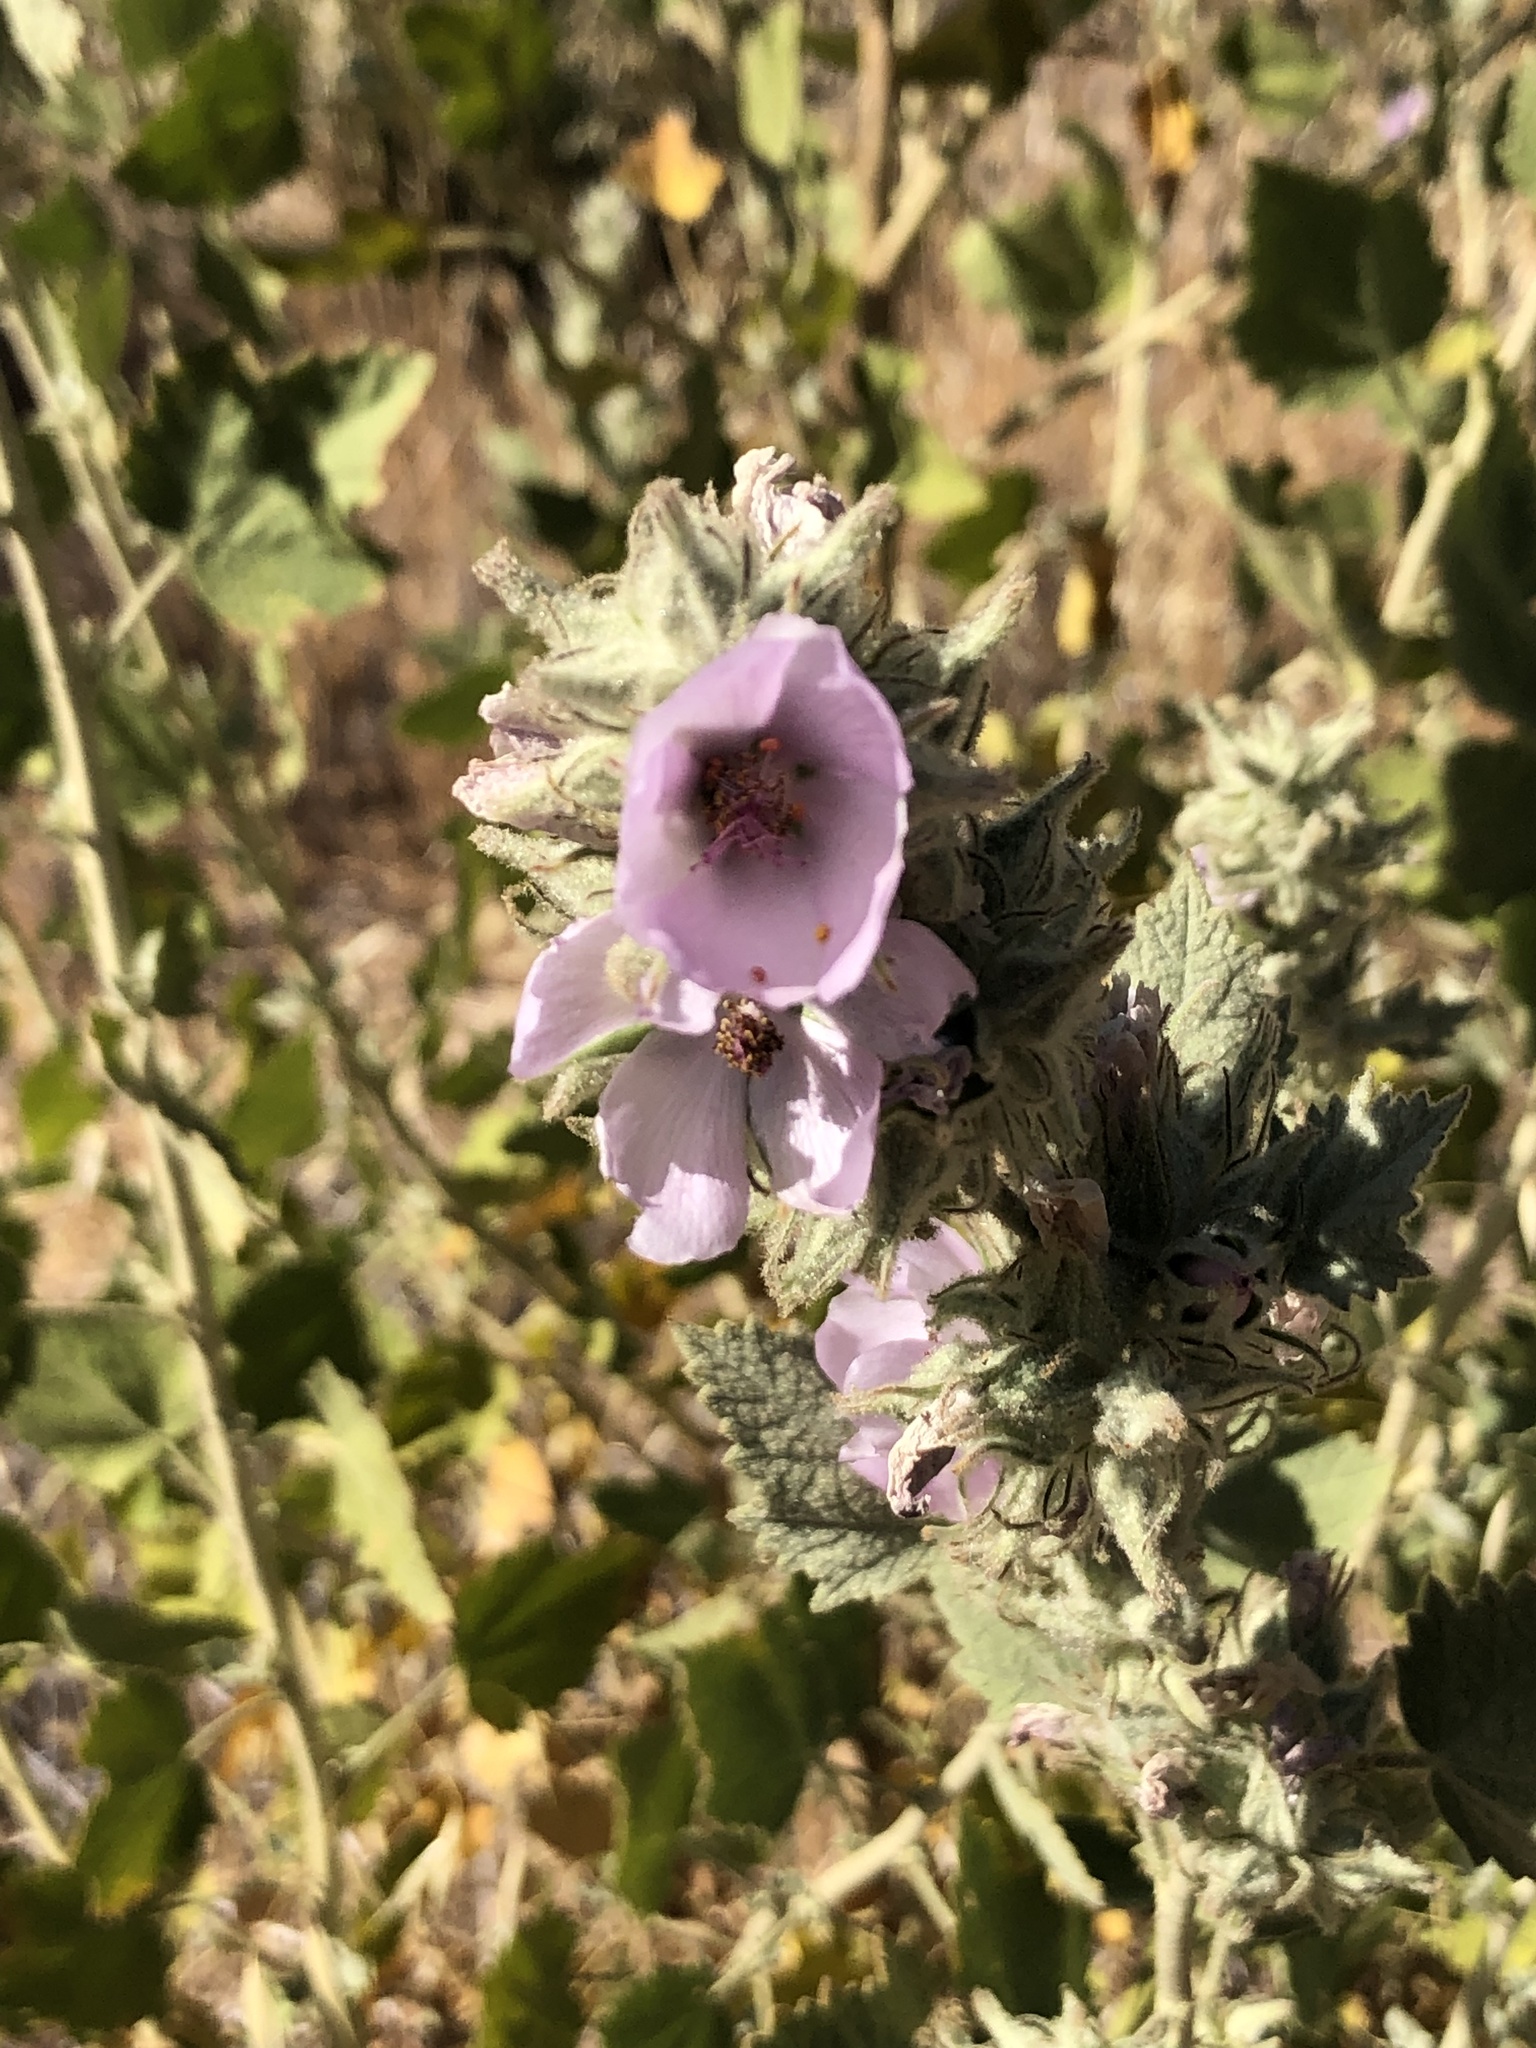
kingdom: Plantae
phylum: Tracheophyta
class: Magnoliopsida
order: Malvales
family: Malvaceae
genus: Malacothamnus
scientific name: Malacothamnus marrubioides
